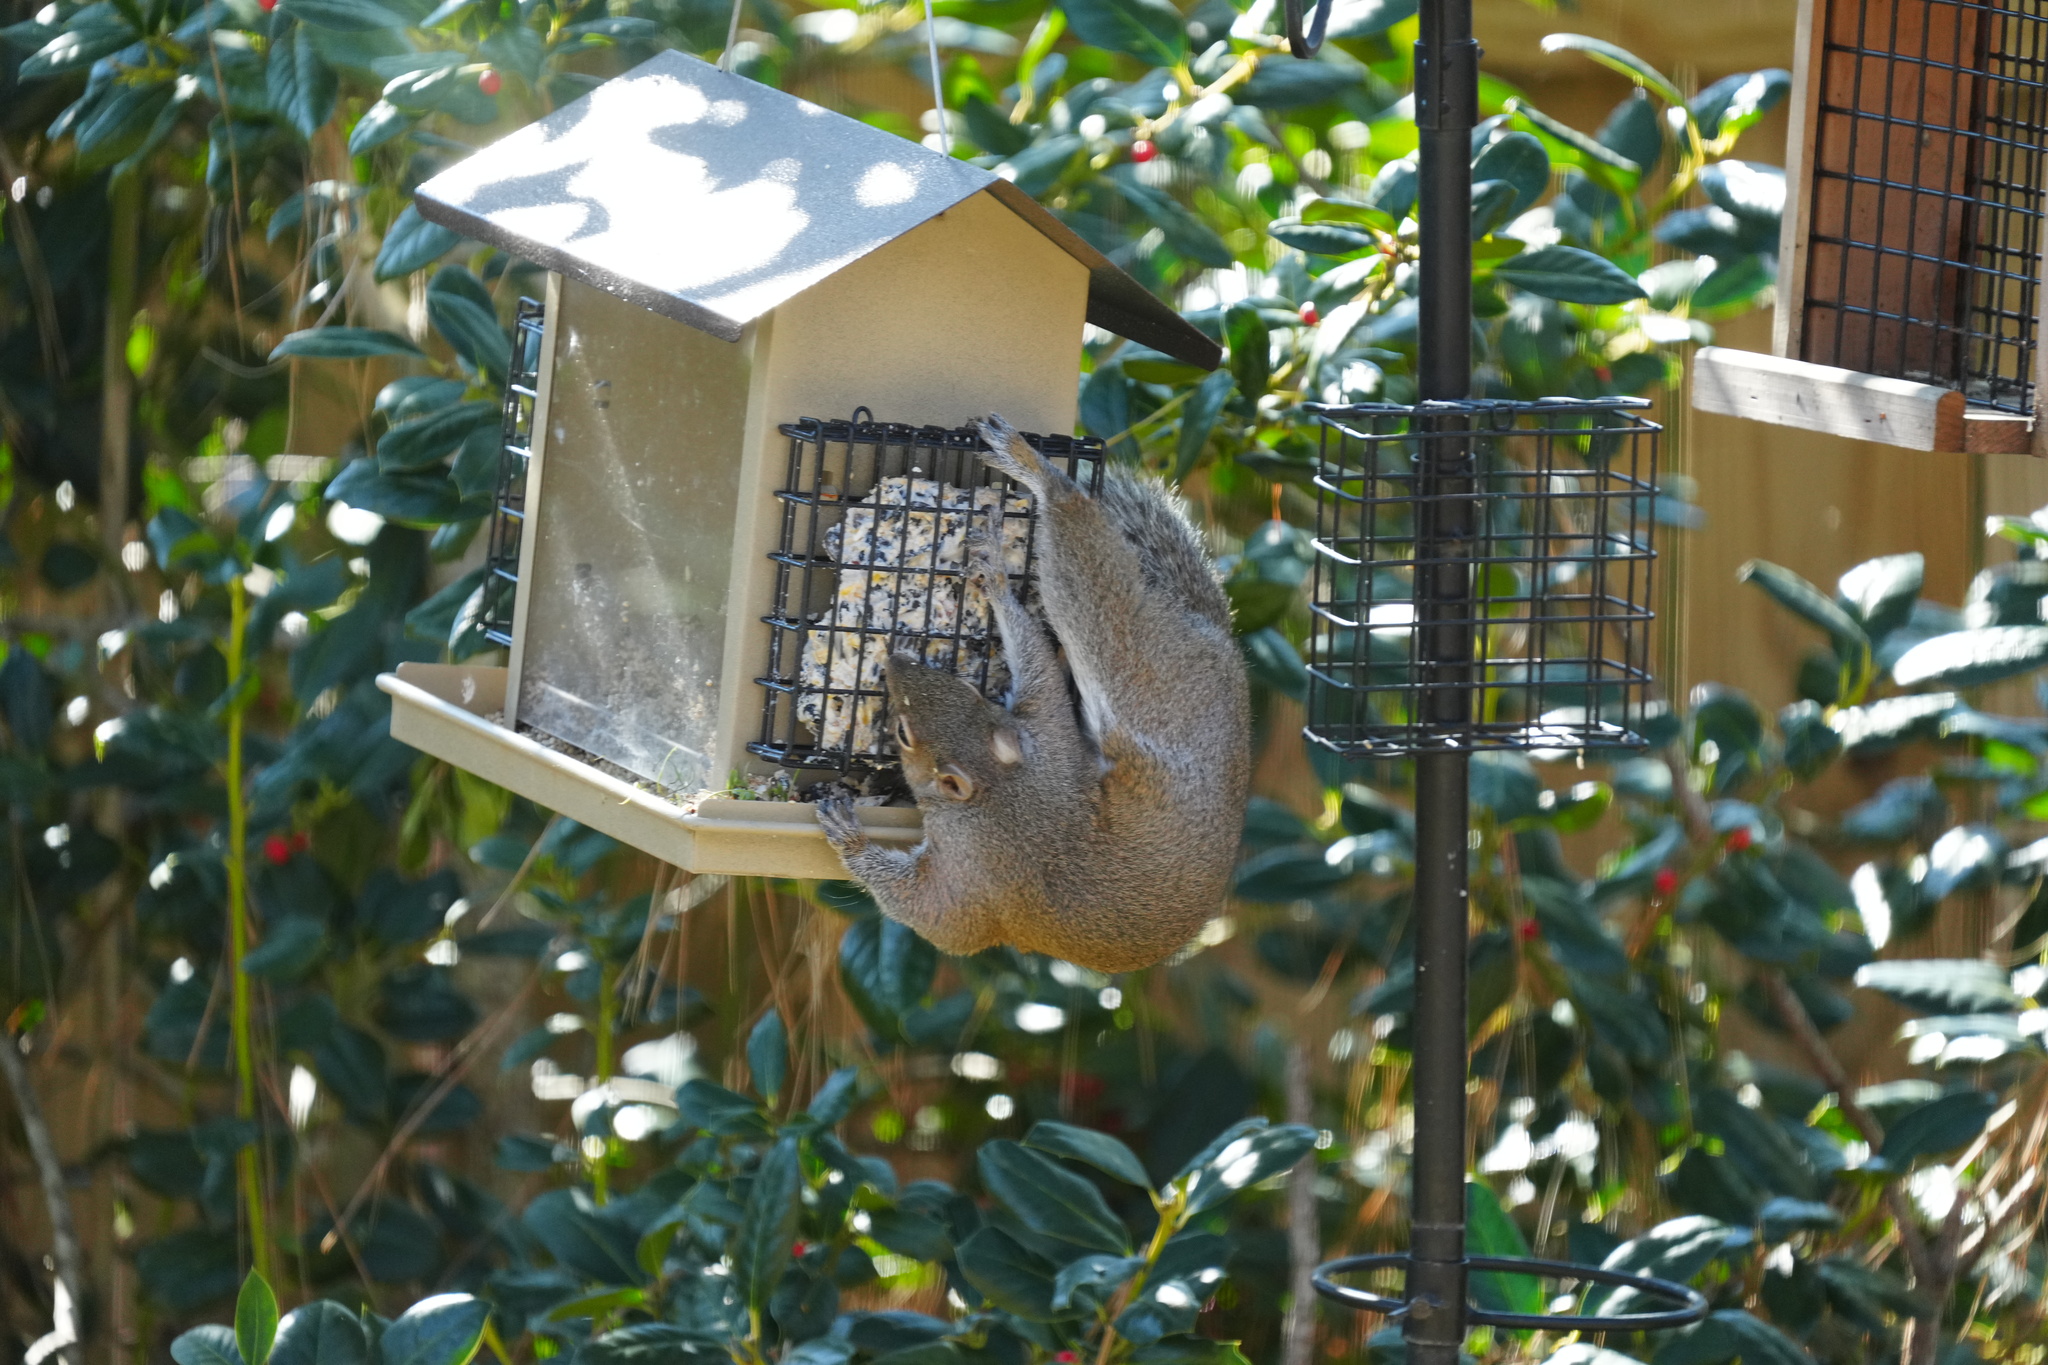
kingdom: Animalia
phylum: Chordata
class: Mammalia
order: Rodentia
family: Sciuridae
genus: Sciurus
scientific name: Sciurus carolinensis
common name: Eastern gray squirrel
